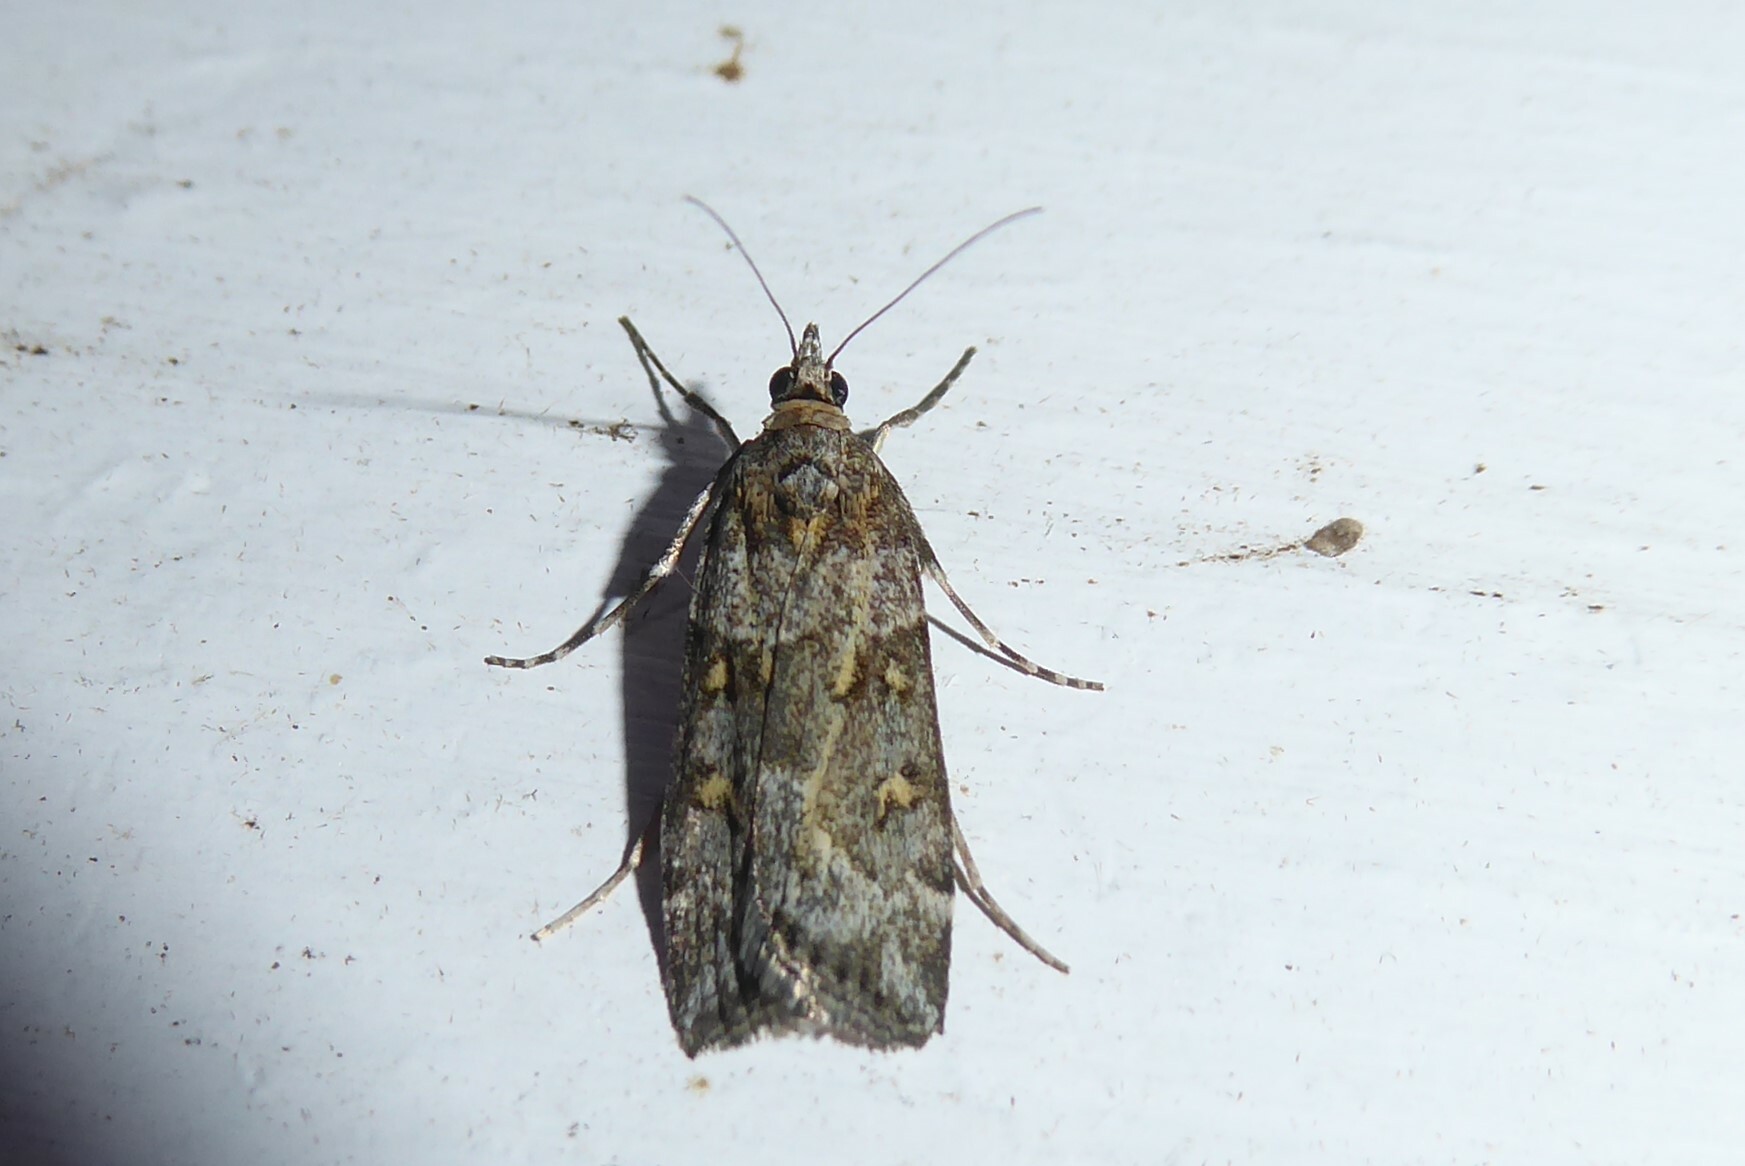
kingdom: Animalia
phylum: Arthropoda
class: Insecta
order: Lepidoptera
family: Crambidae
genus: Scoparia
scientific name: Scoparia tetracycla
